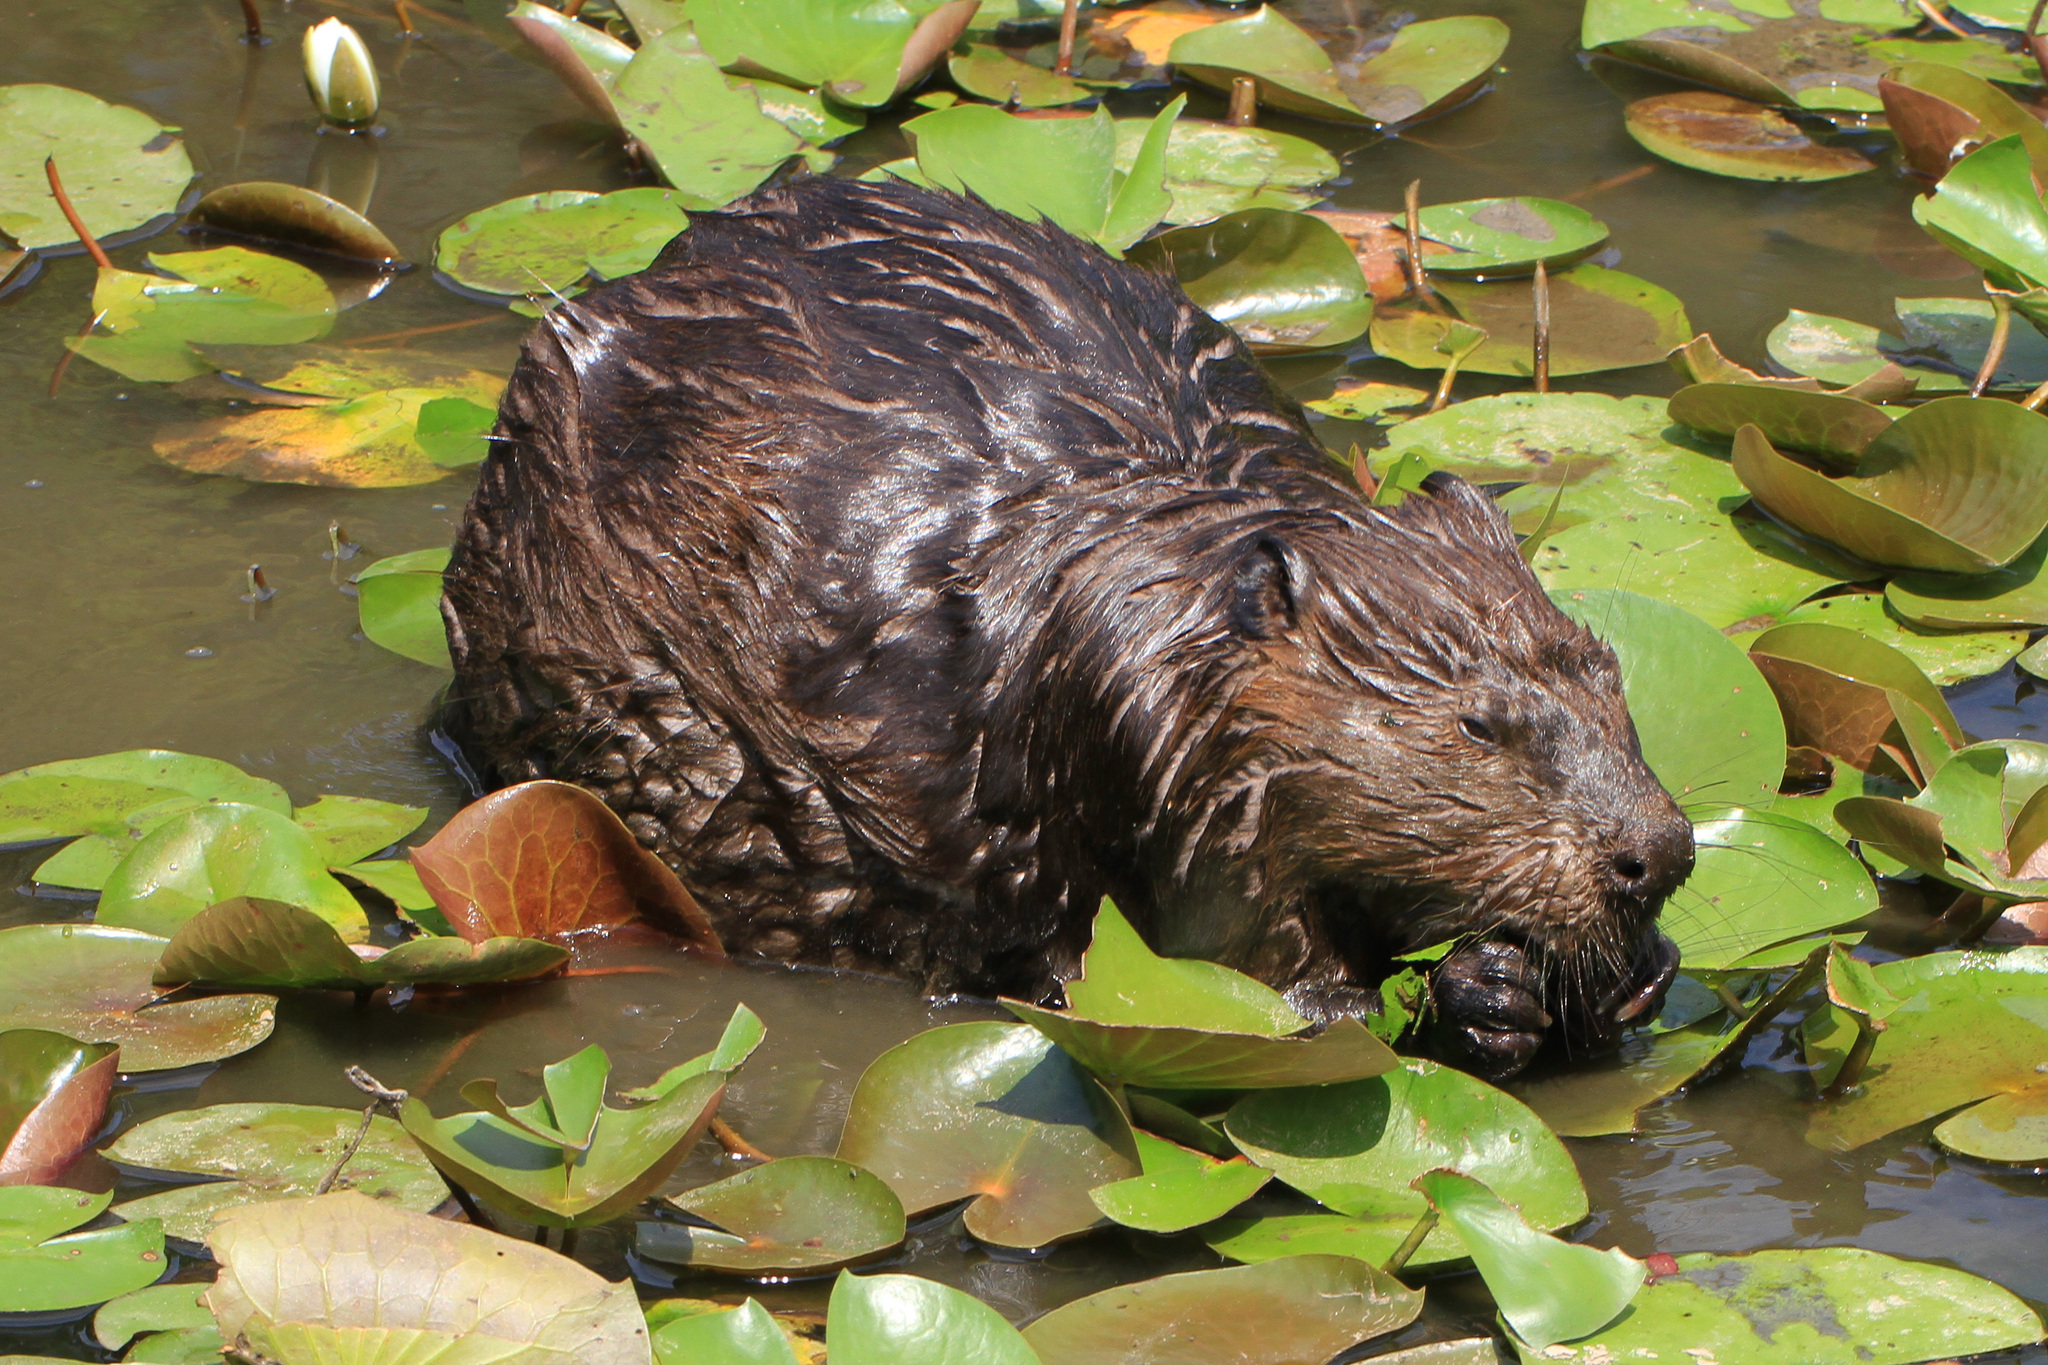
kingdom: Animalia
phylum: Chordata
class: Mammalia
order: Rodentia
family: Castoridae
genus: Castor
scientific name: Castor canadensis
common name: American beaver
